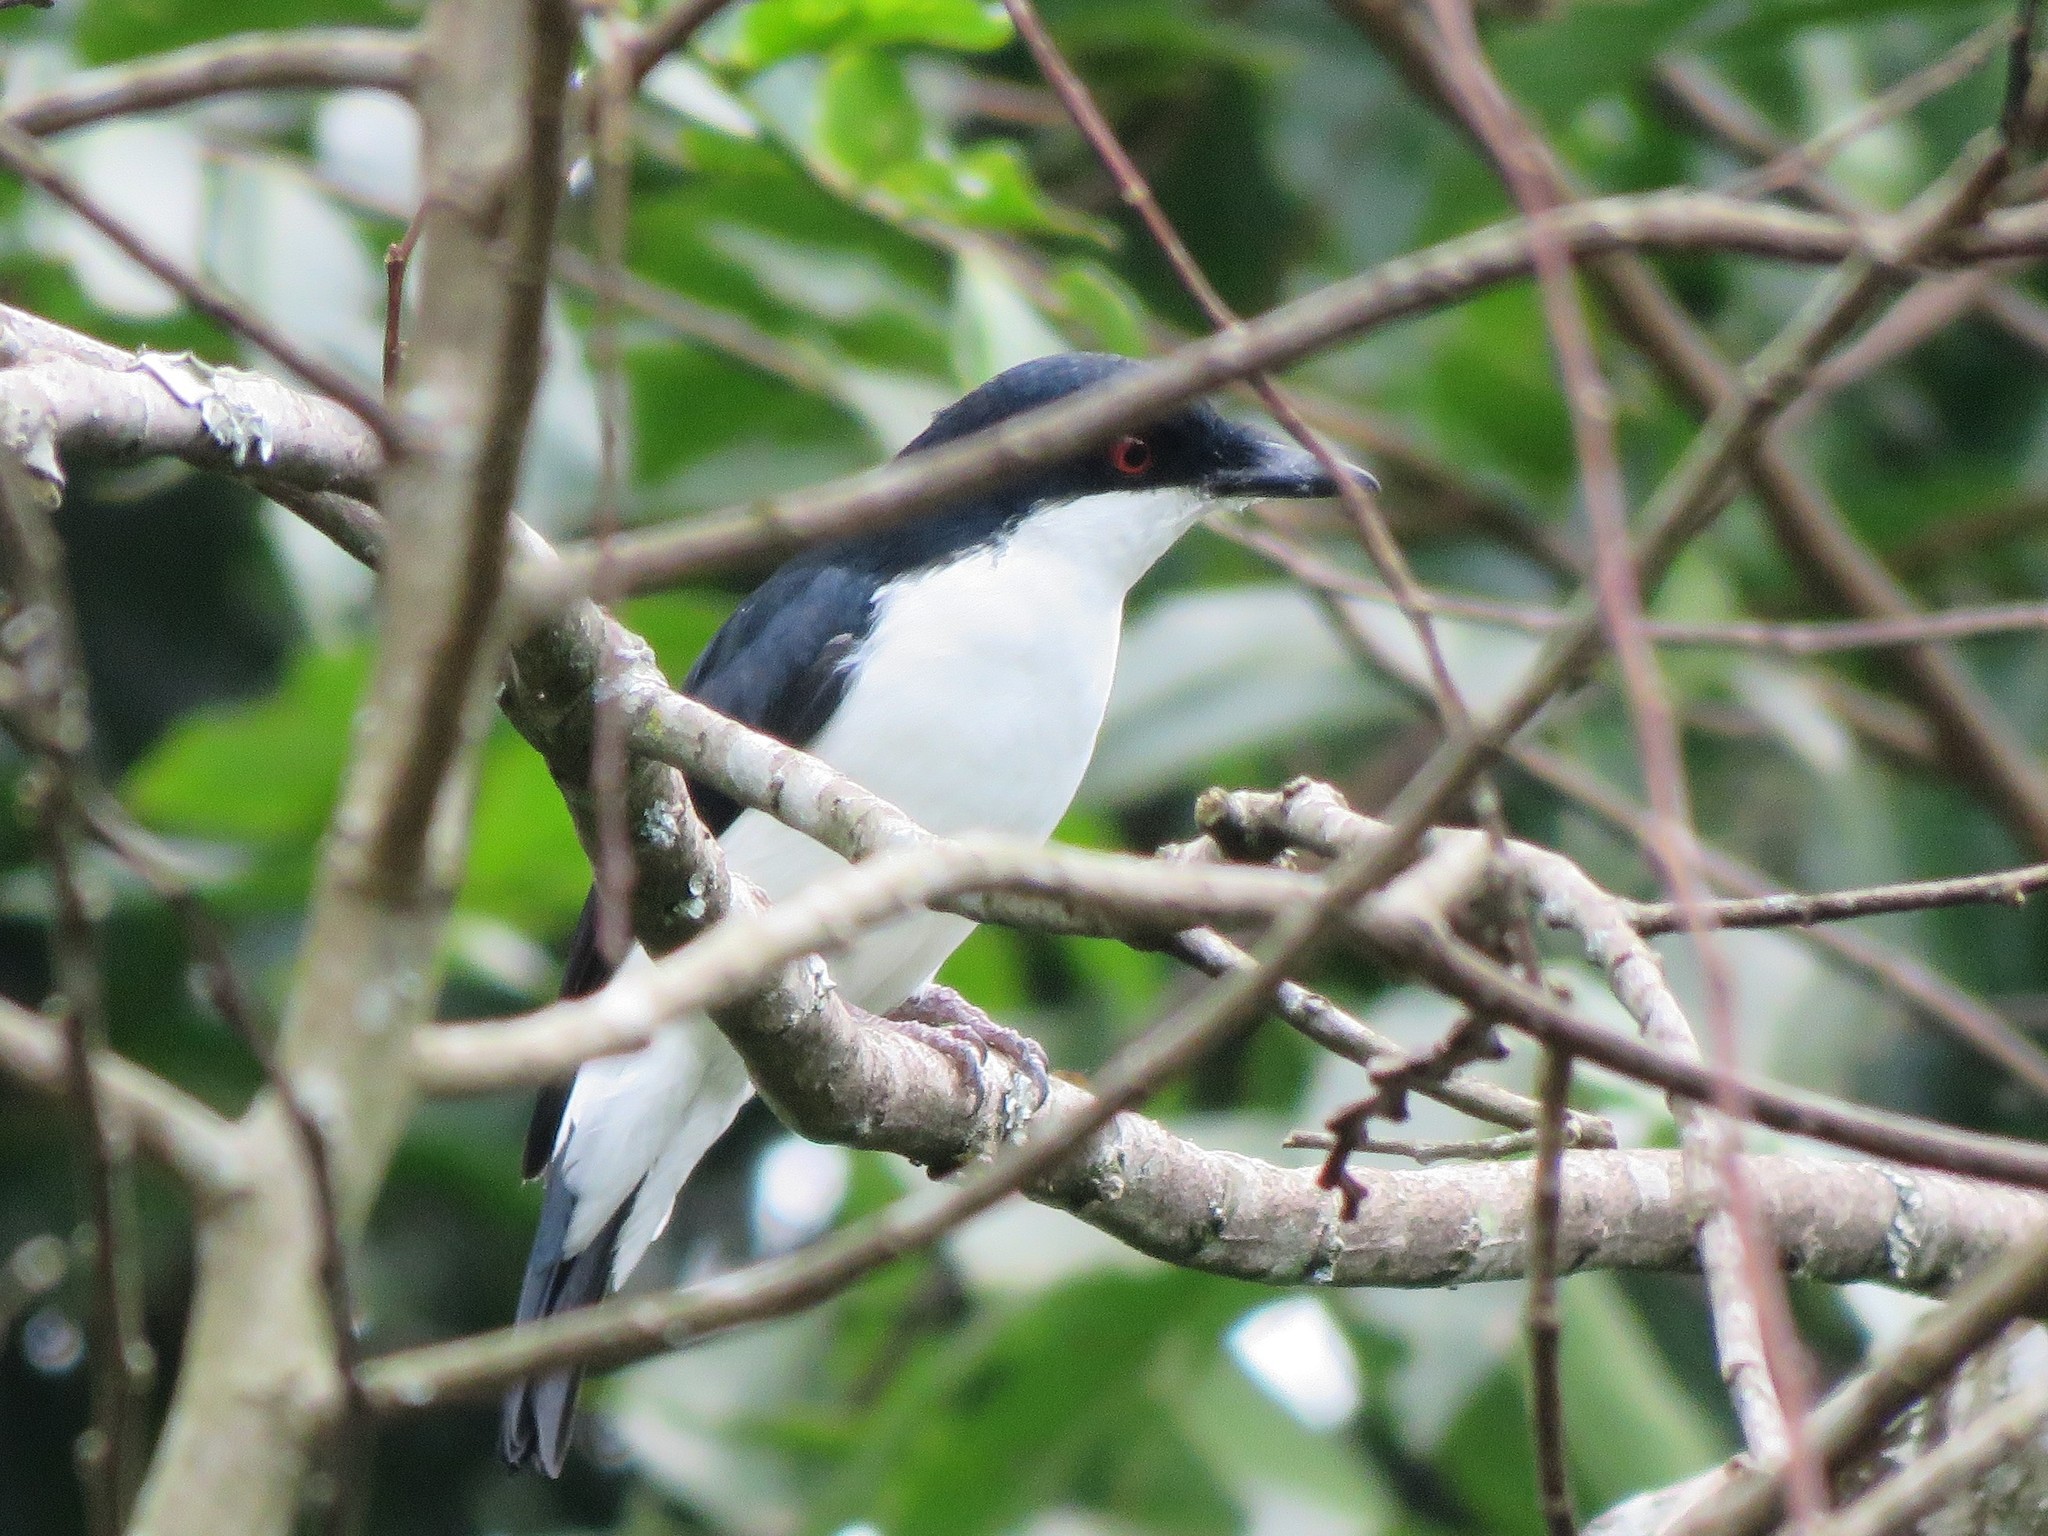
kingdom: Animalia
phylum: Chordata
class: Aves
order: Passeriformes
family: Platysteiridae
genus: Megabyas
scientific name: Megabyas flammulatus
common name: African shrike-flycatcher
